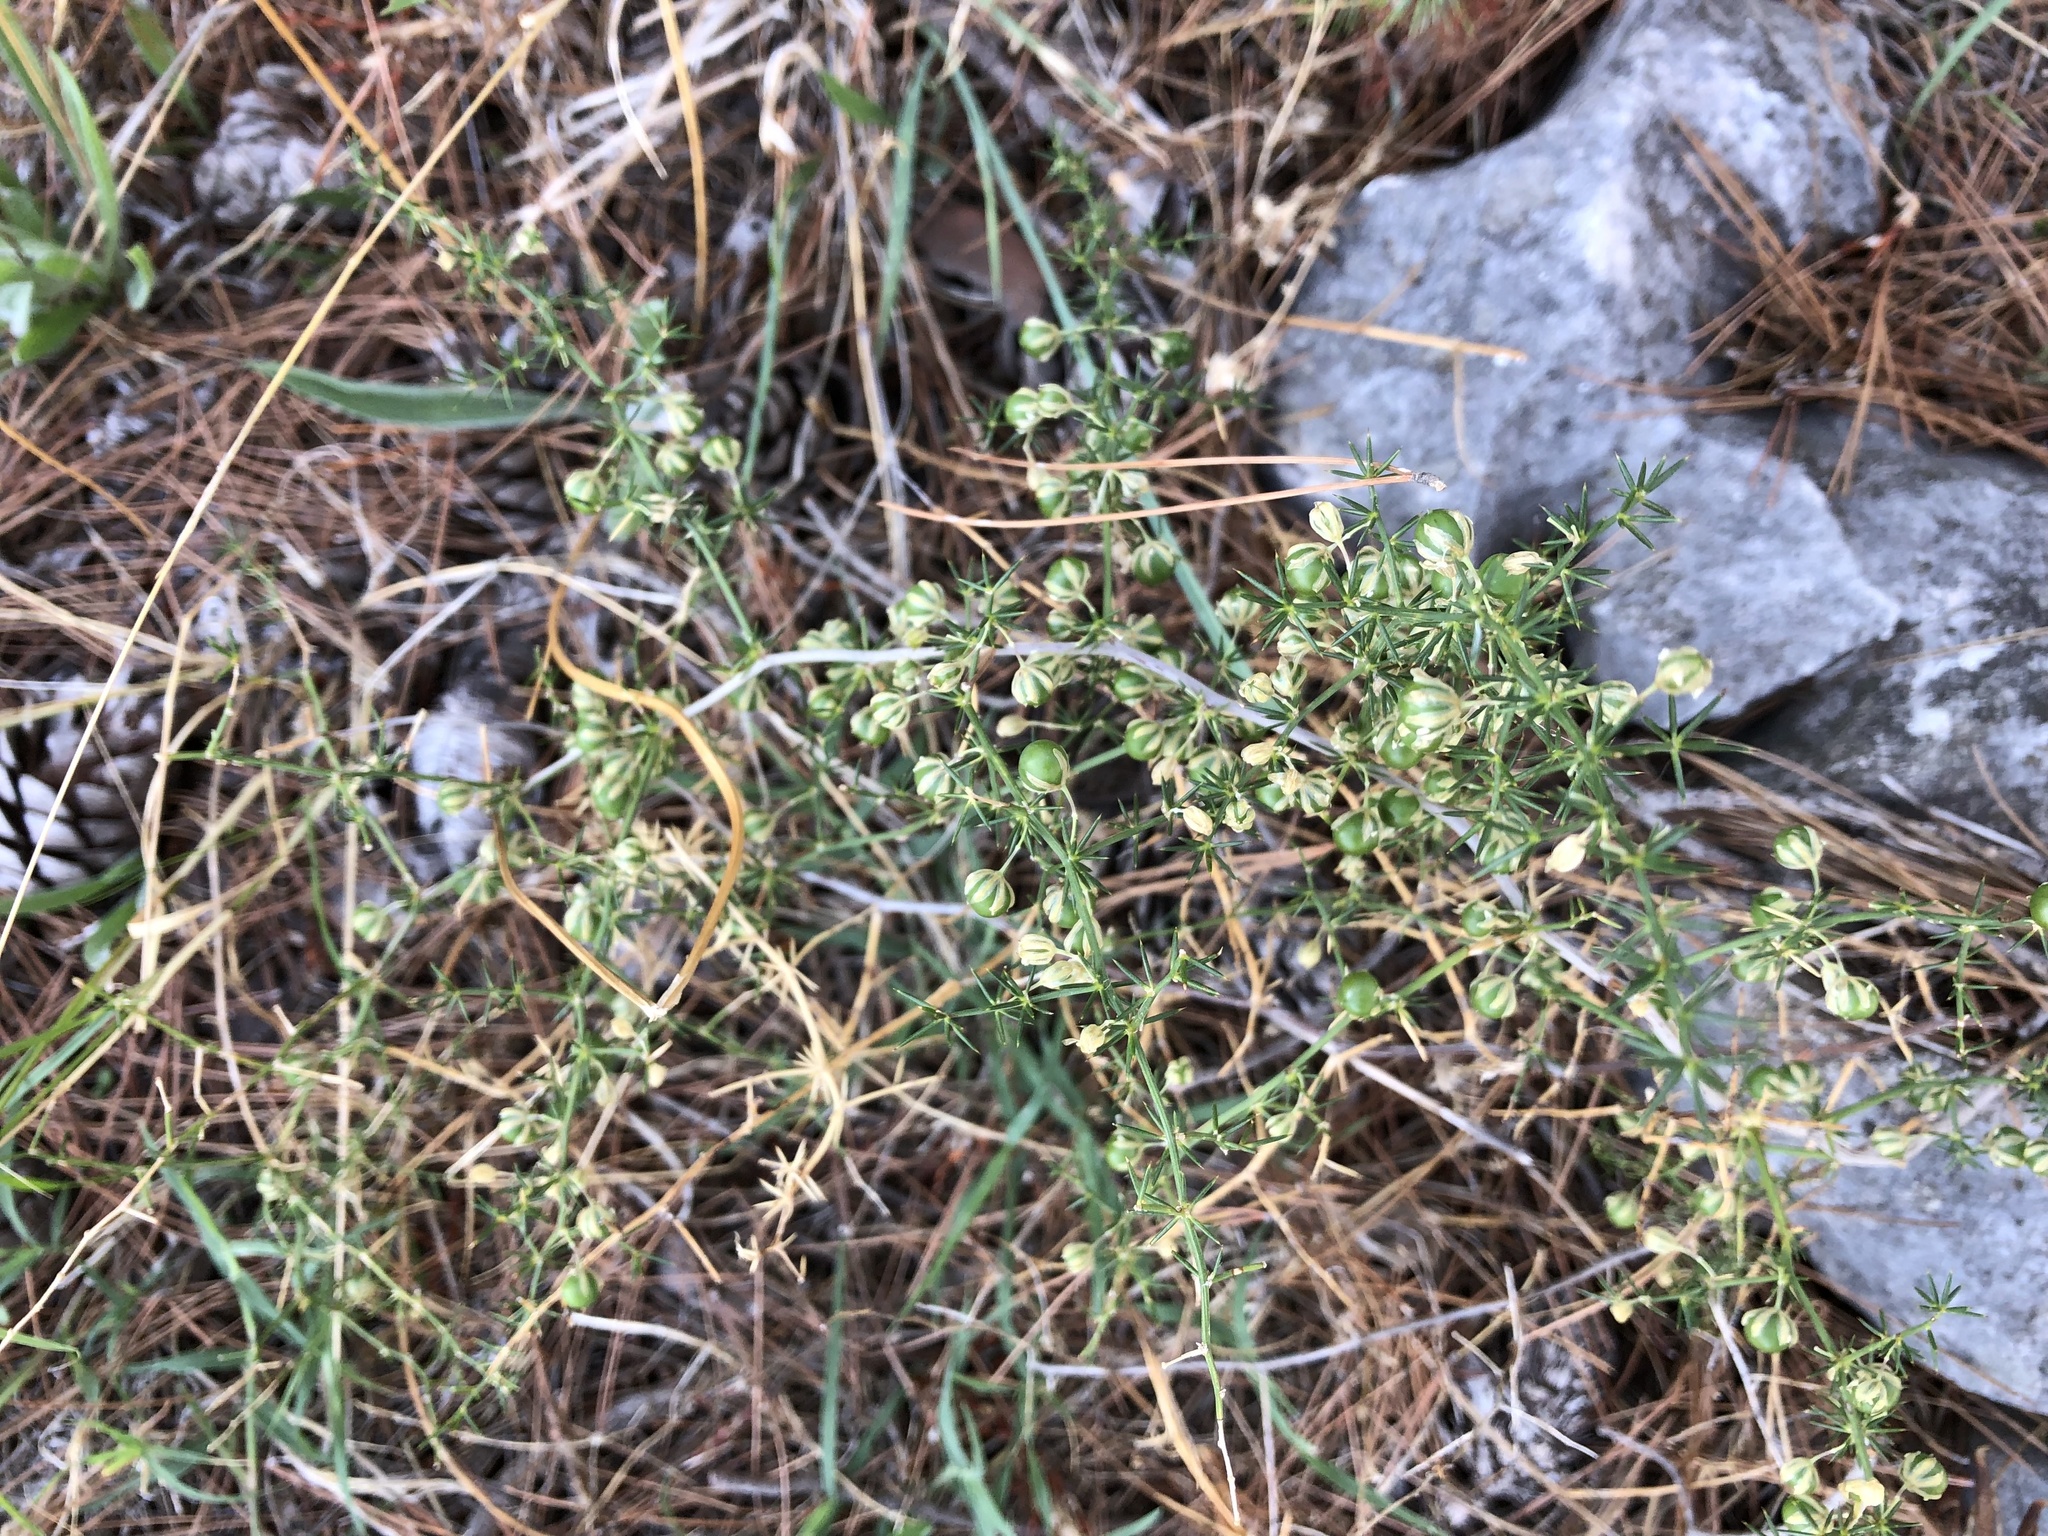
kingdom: Plantae
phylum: Tracheophyta
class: Liliopsida
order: Asparagales
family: Asparagaceae
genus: Asparagus
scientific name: Asparagus acutifolius
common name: Wild asparagus
